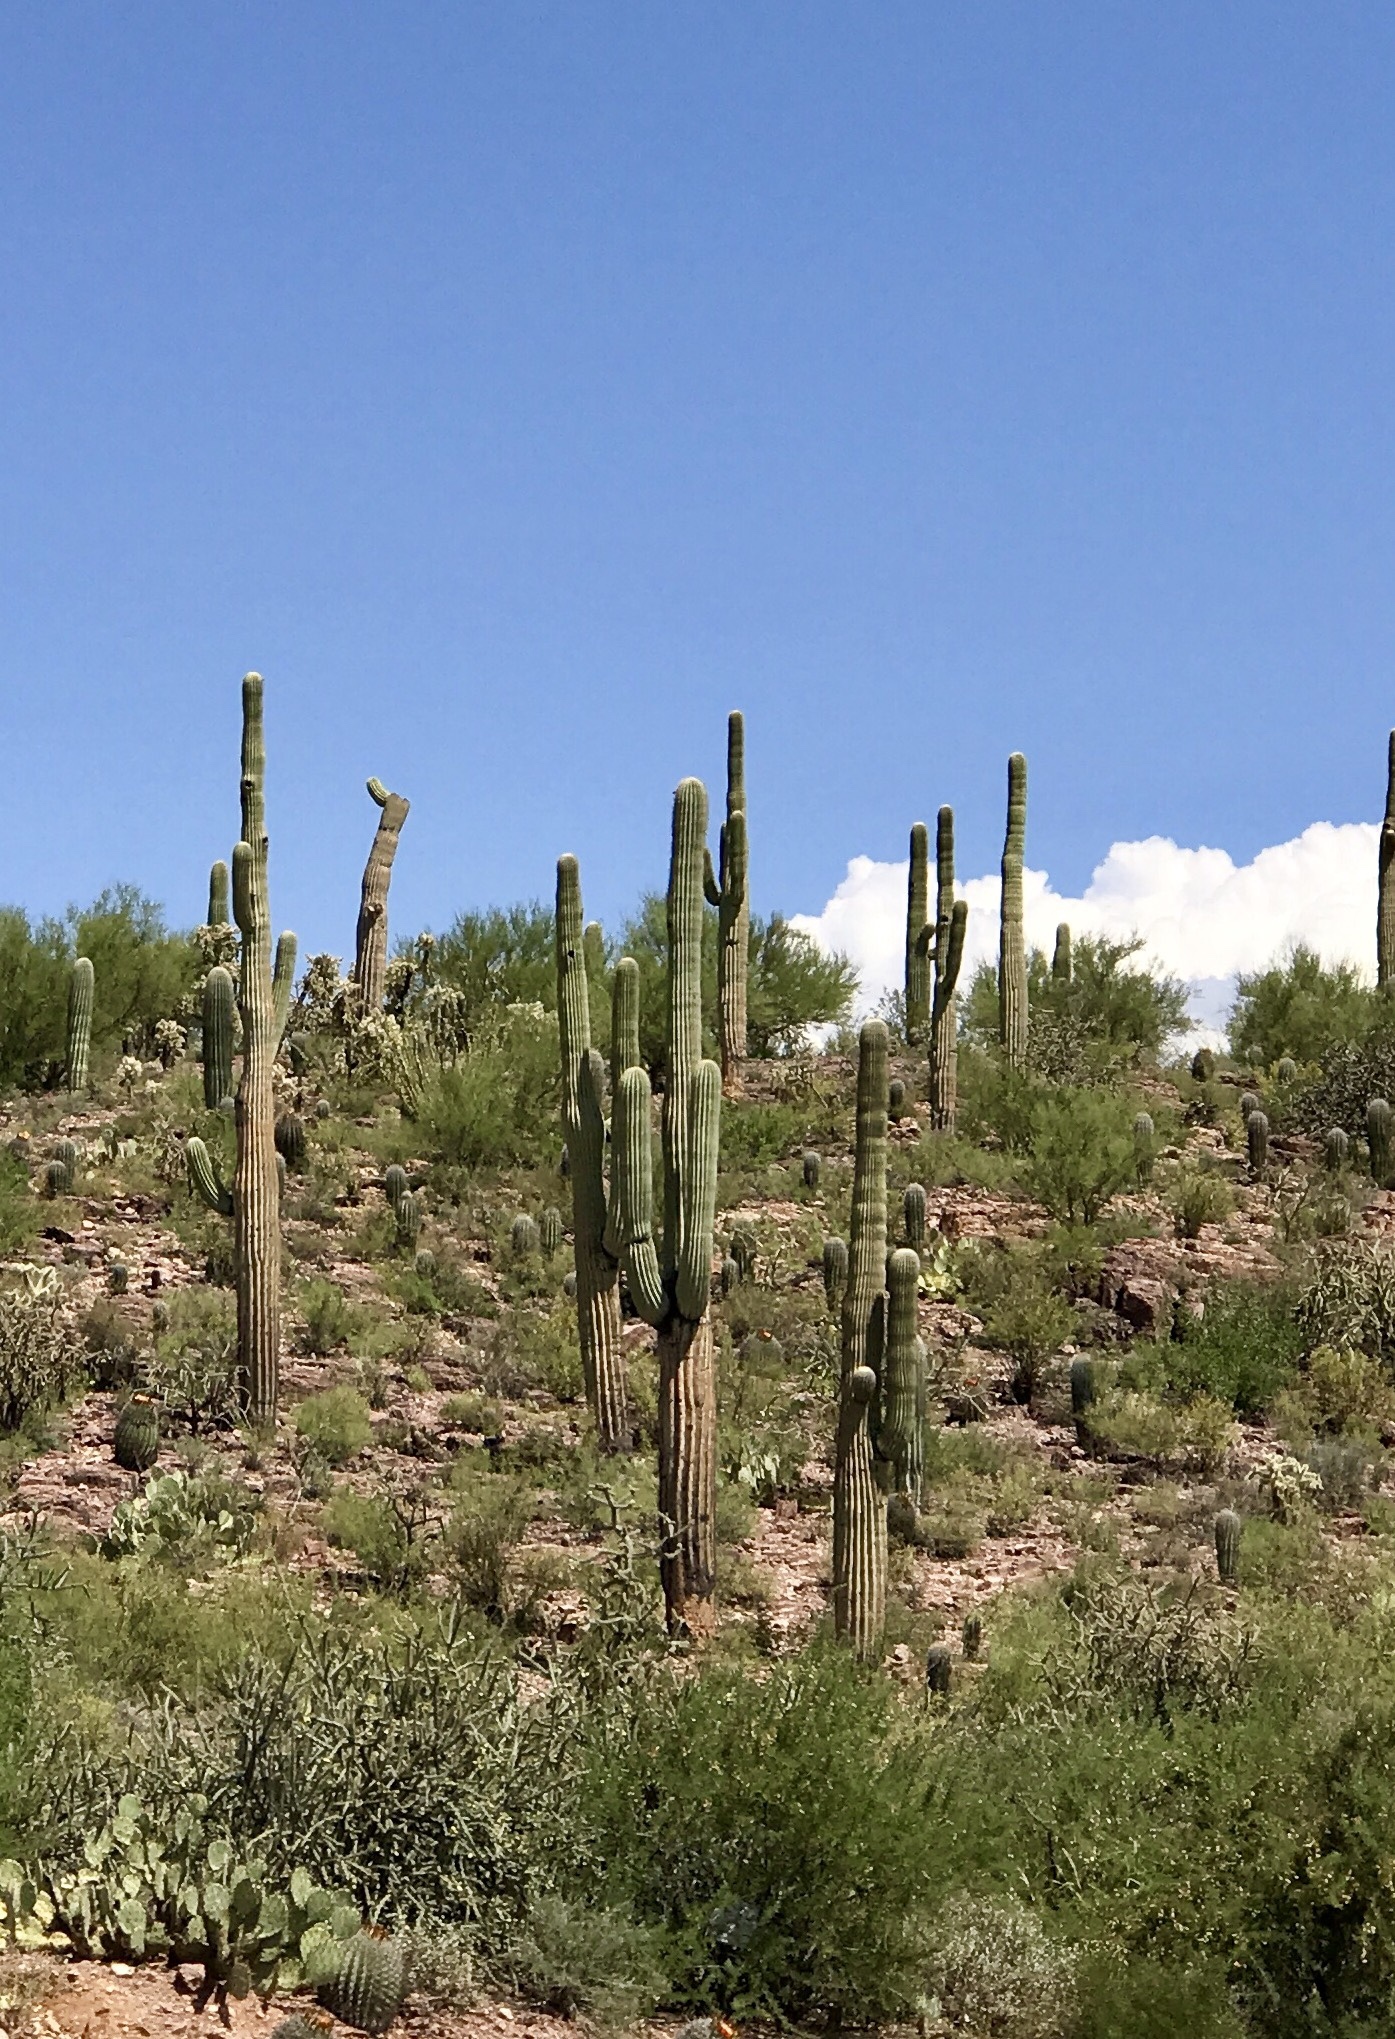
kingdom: Plantae
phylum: Tracheophyta
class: Magnoliopsida
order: Caryophyllales
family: Cactaceae
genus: Carnegiea
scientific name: Carnegiea gigantea
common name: Saguaro
